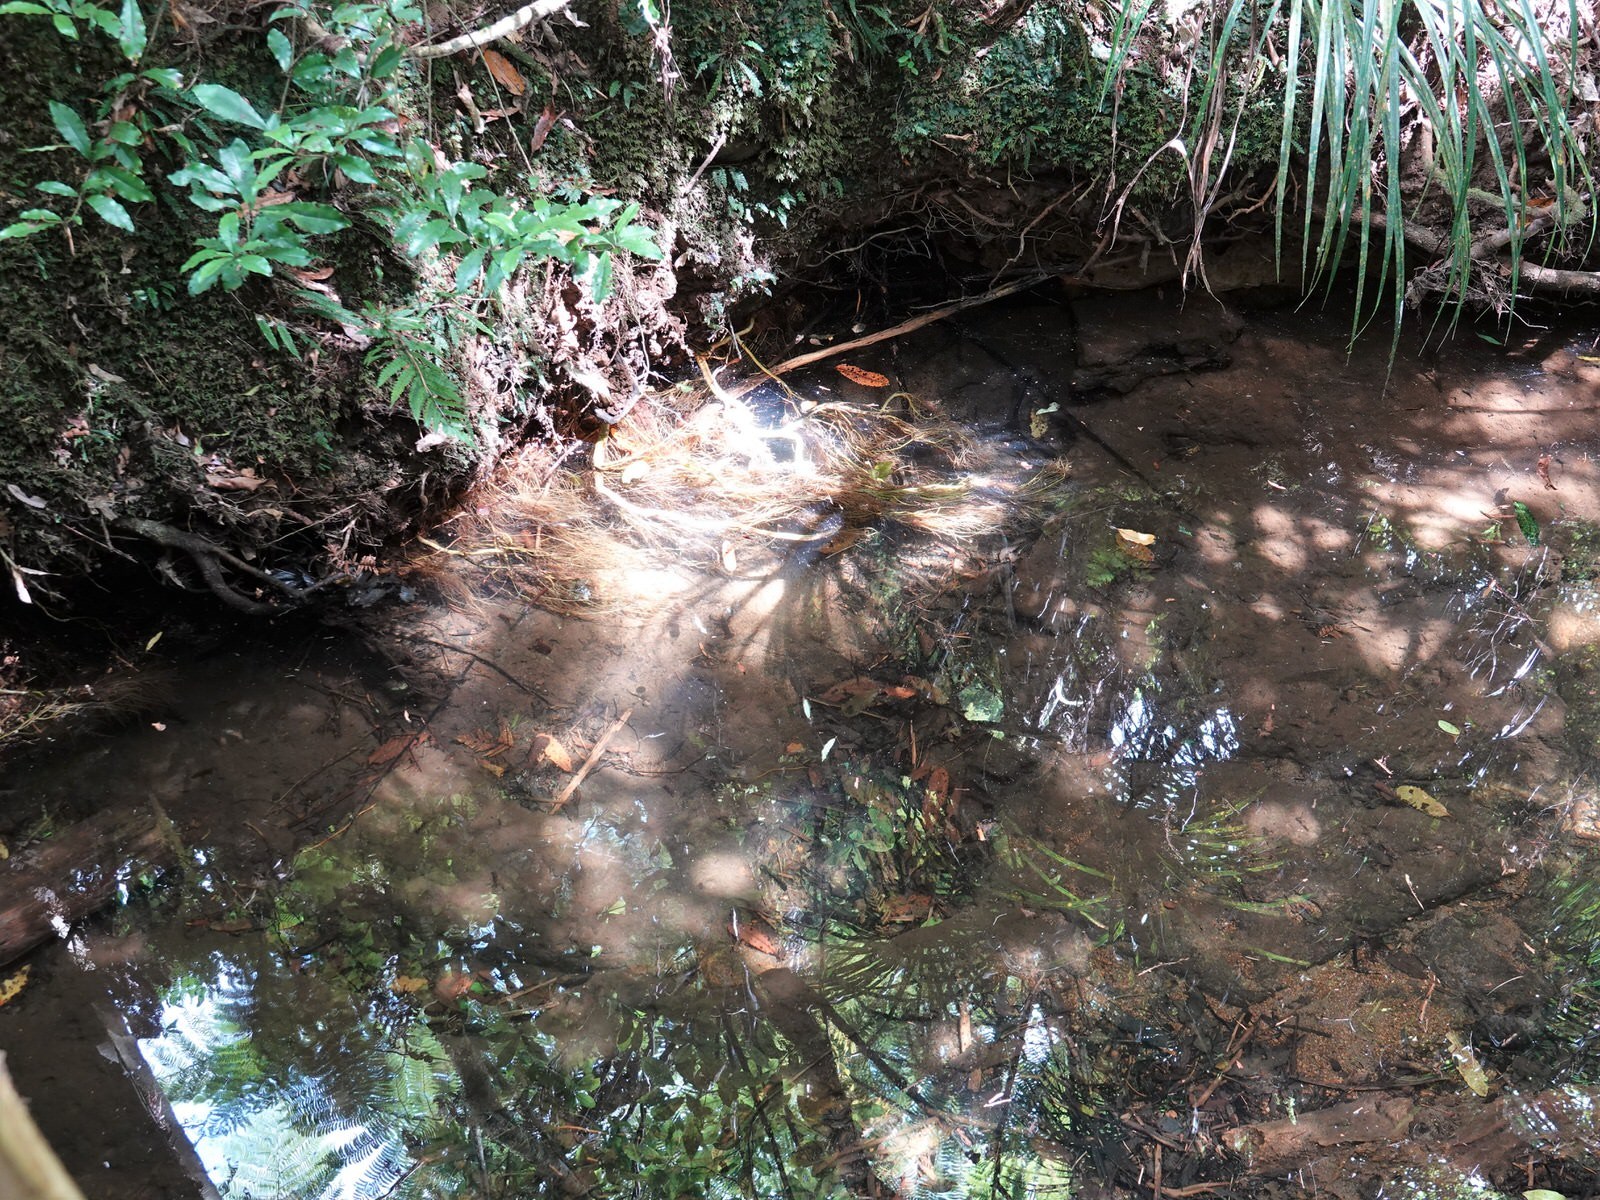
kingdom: Animalia
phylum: Arthropoda
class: Malacostraca
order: Decapoda
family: Parastacidae
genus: Paranephrops
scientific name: Paranephrops planifrons
